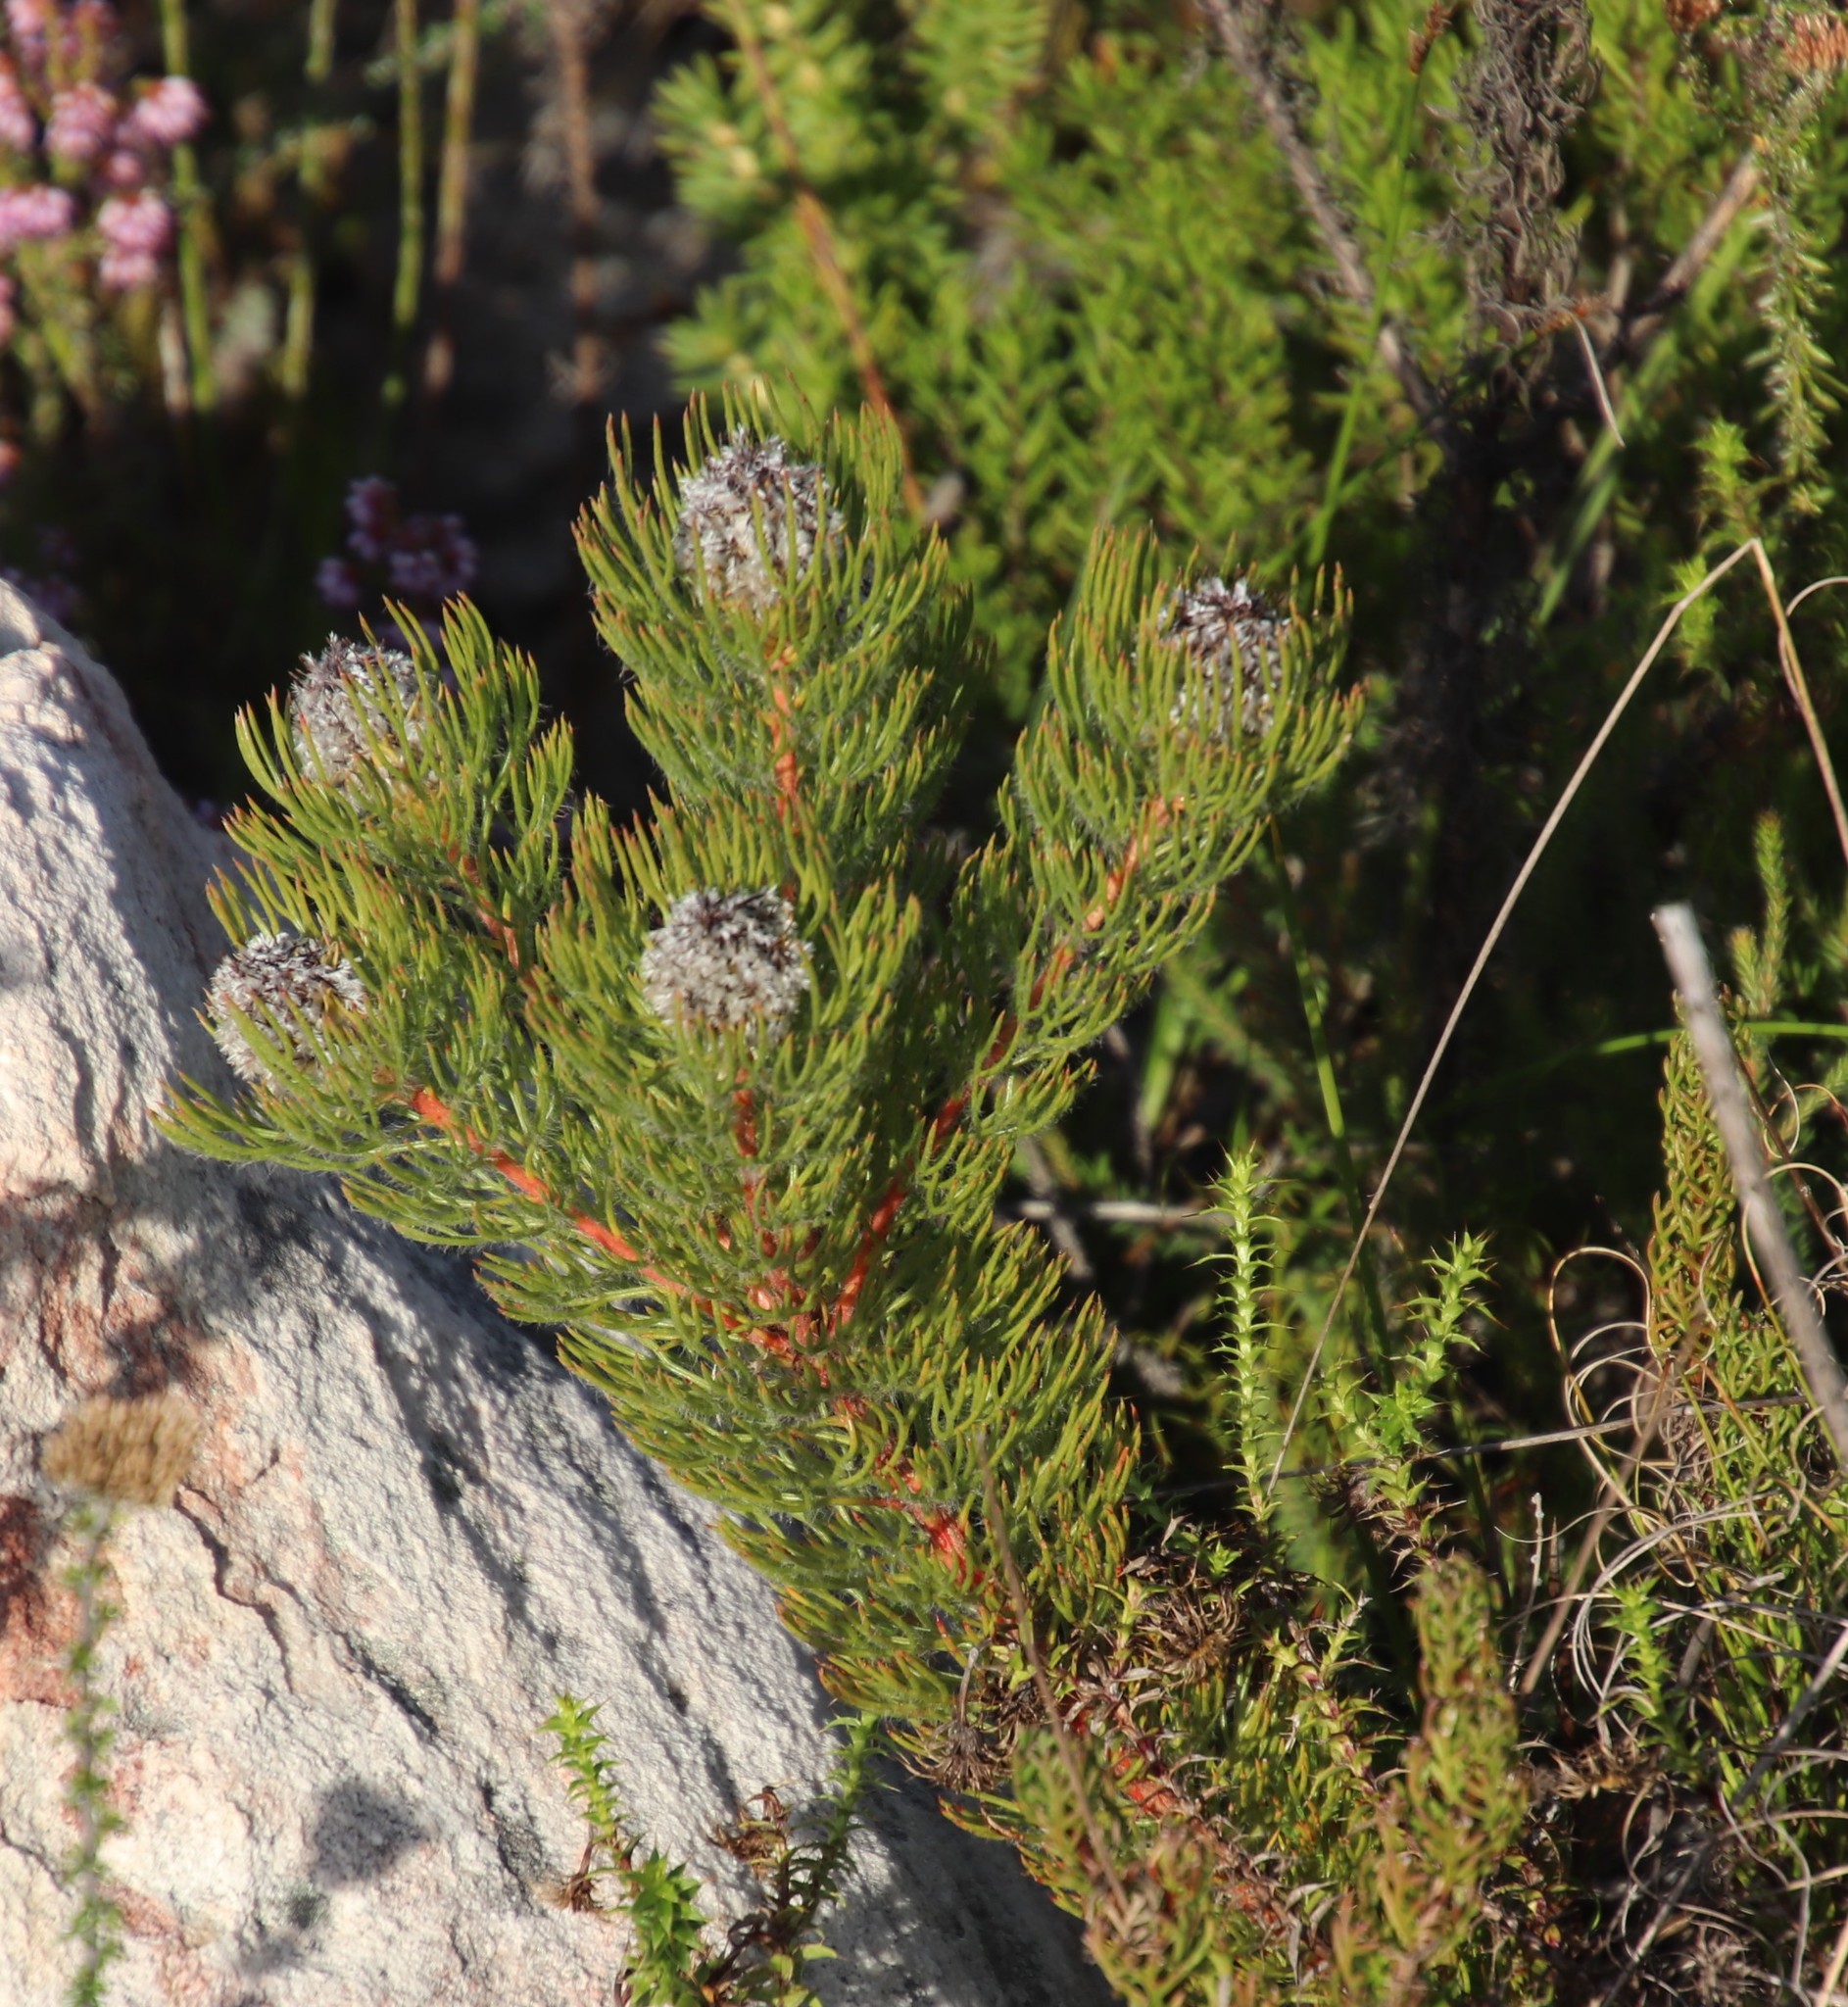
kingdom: Plantae
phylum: Tracheophyta
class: Magnoliopsida
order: Proteales
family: Proteaceae
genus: Serruria
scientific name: Serruria villosa
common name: Golden spiderhead
